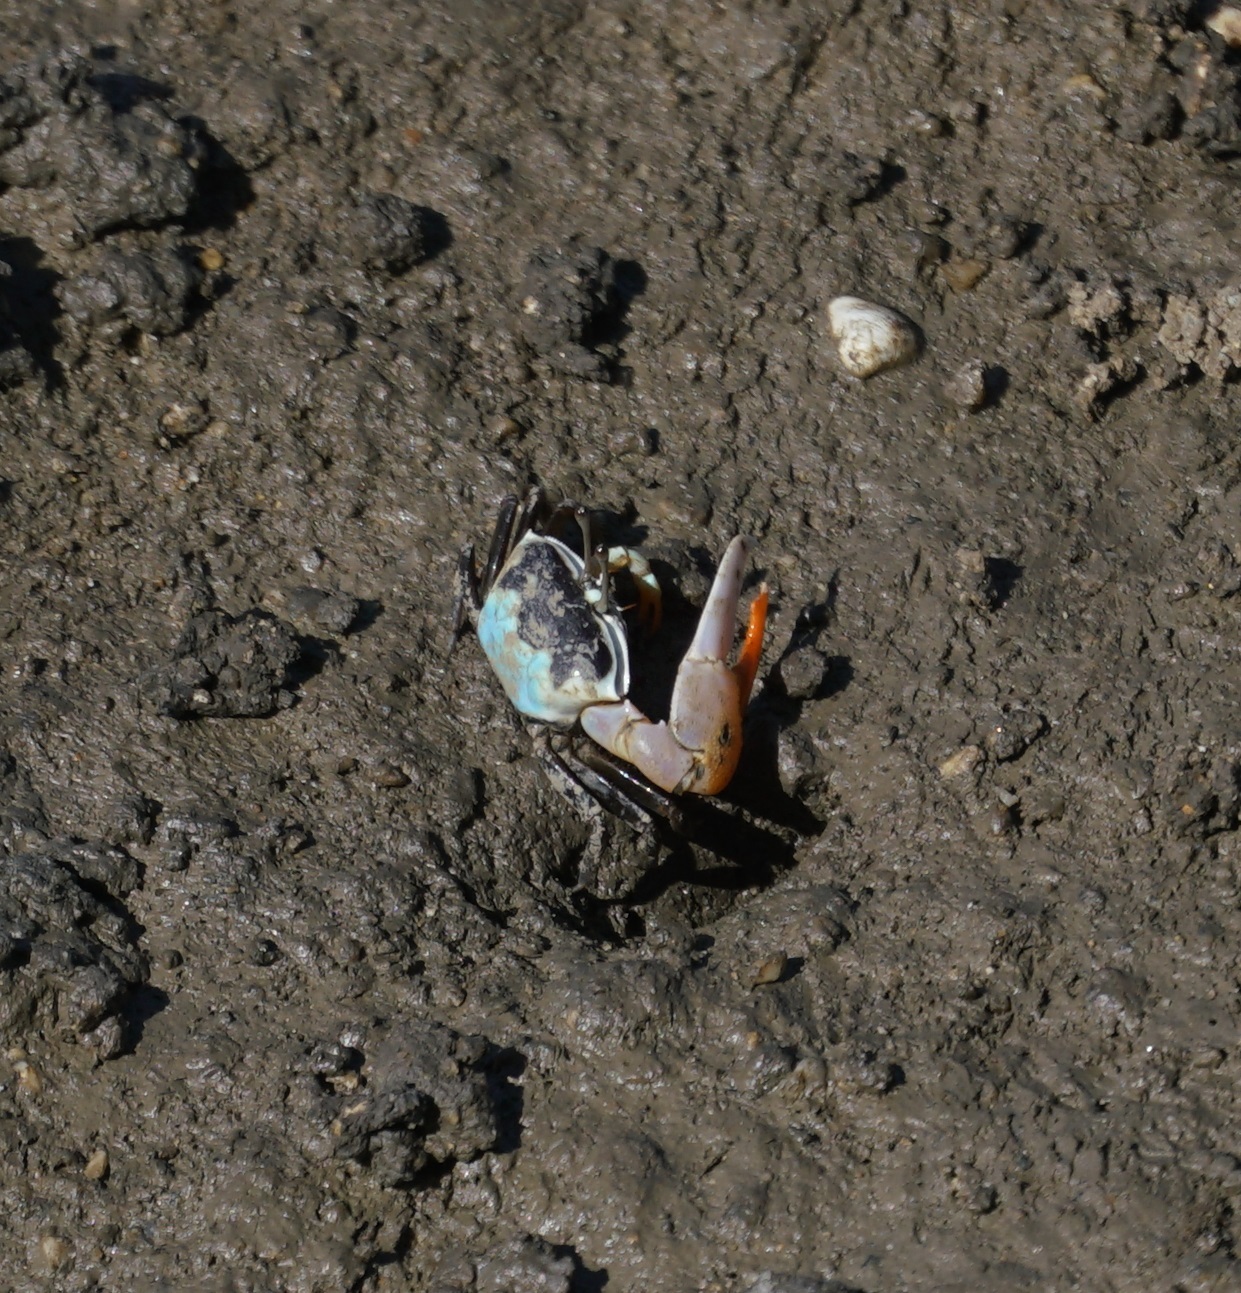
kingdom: Animalia
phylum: Arthropoda
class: Malacostraca
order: Decapoda
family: Ocypodidae
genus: Gelasimus
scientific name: Gelasimus vomeris
